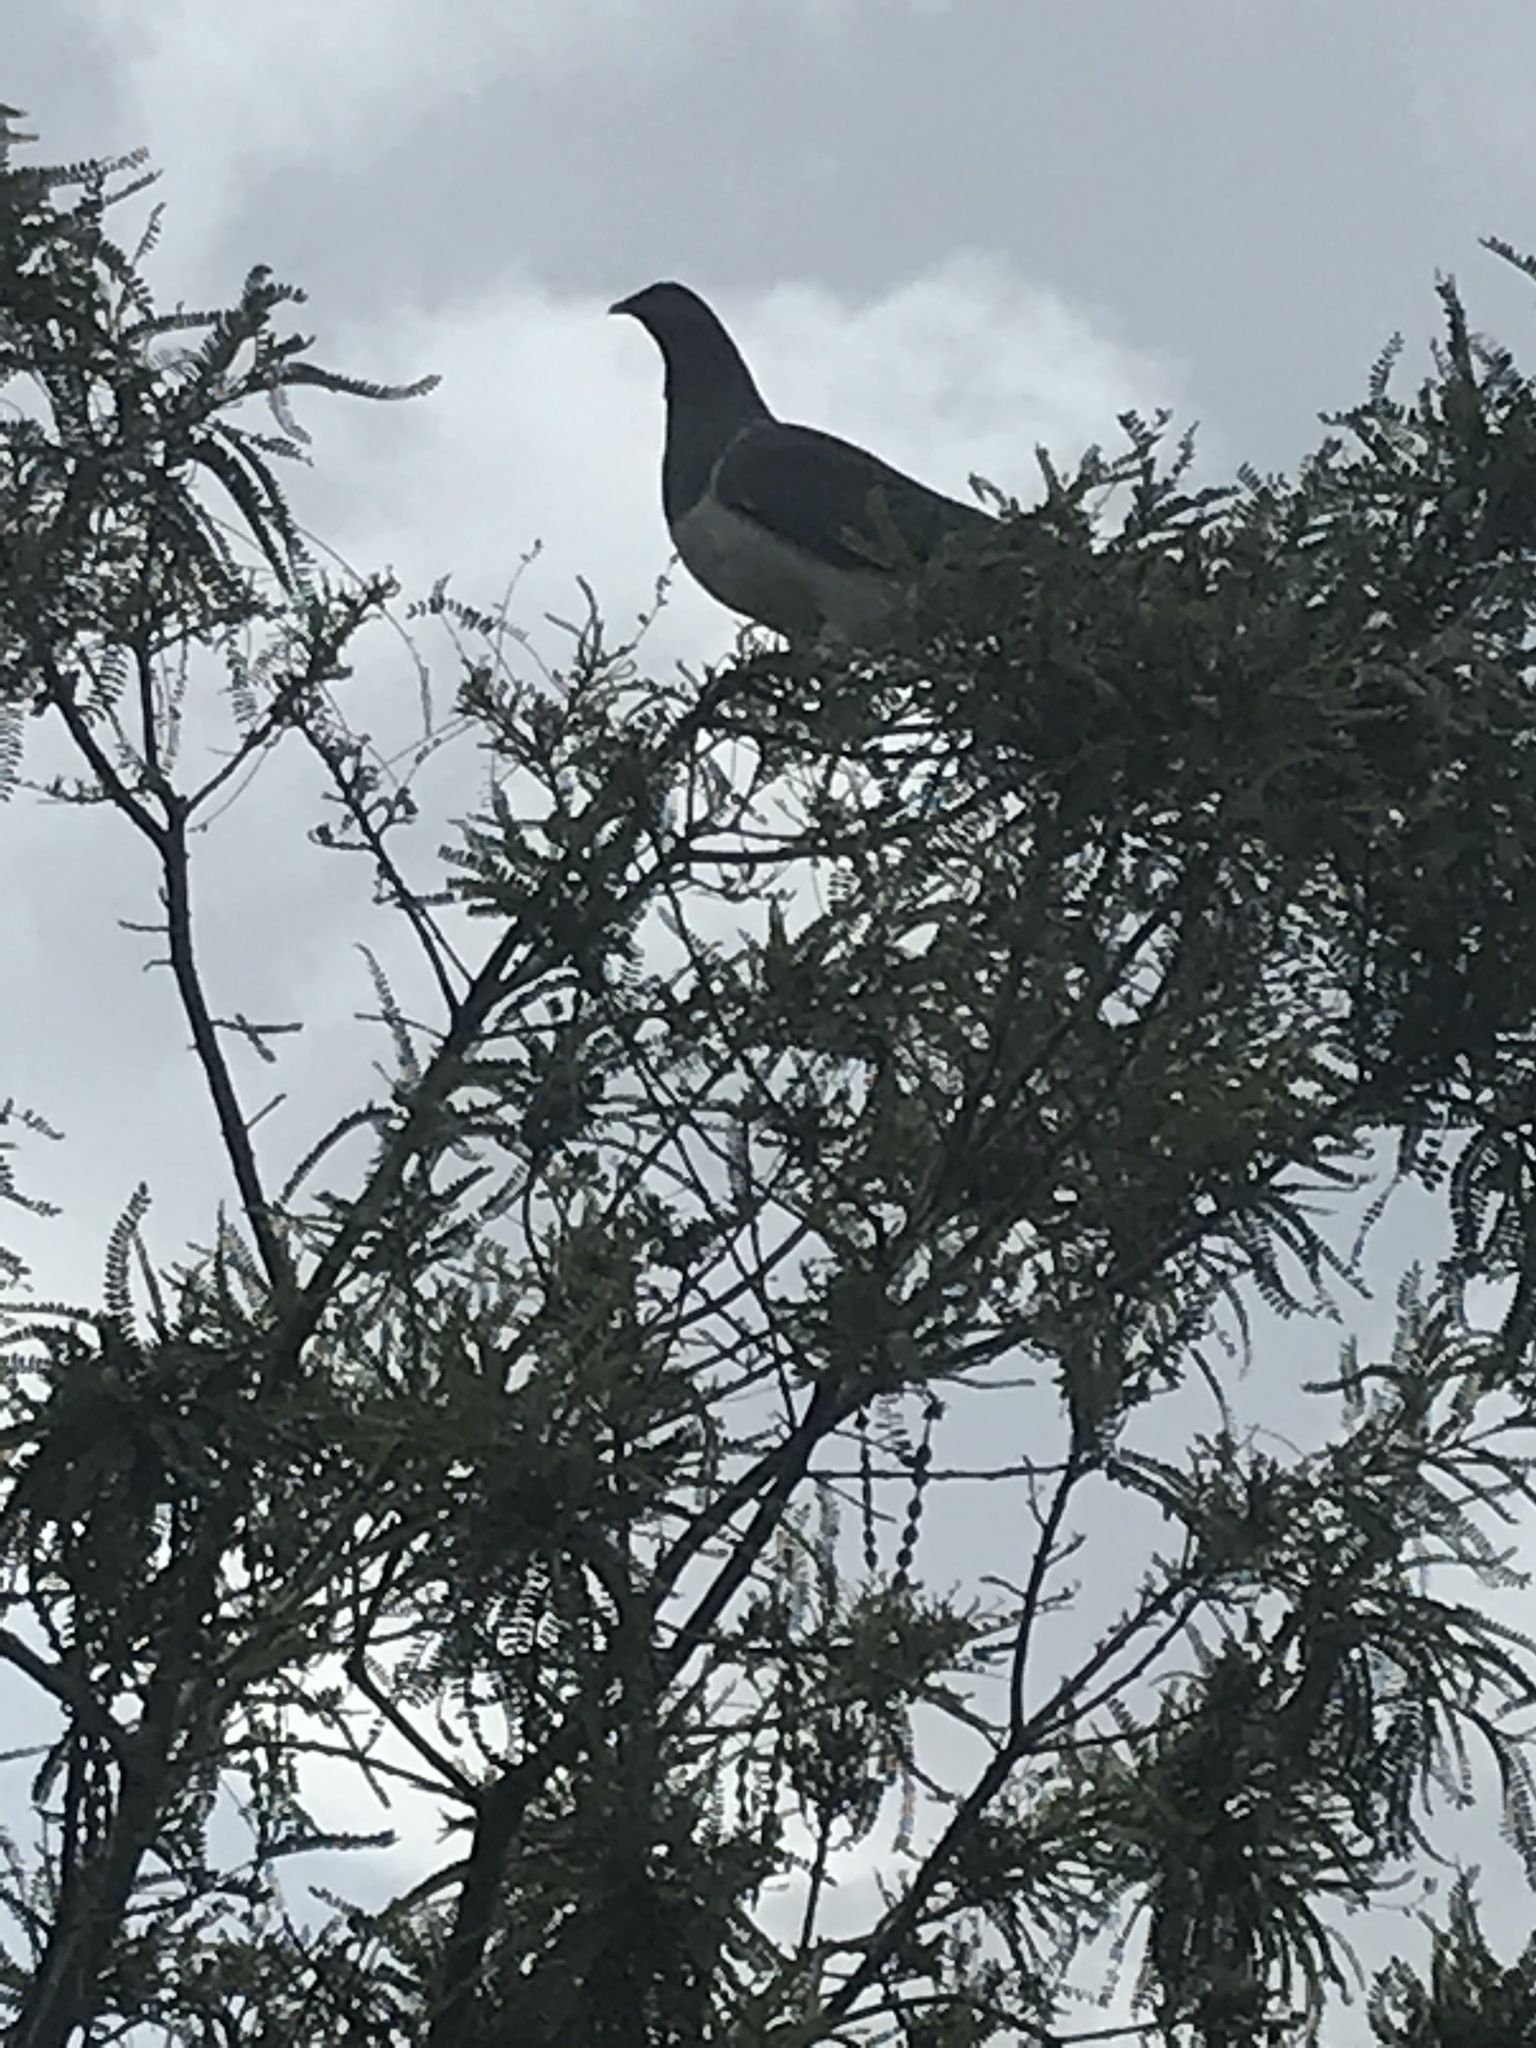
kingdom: Animalia
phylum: Chordata
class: Aves
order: Columbiformes
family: Columbidae
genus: Hemiphaga
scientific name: Hemiphaga novaeseelandiae
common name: New zealand pigeon
